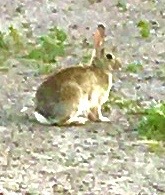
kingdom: Animalia
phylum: Chordata
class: Mammalia
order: Lagomorpha
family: Leporidae
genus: Sylvilagus
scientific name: Sylvilagus audubonii
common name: Desert cottontail
